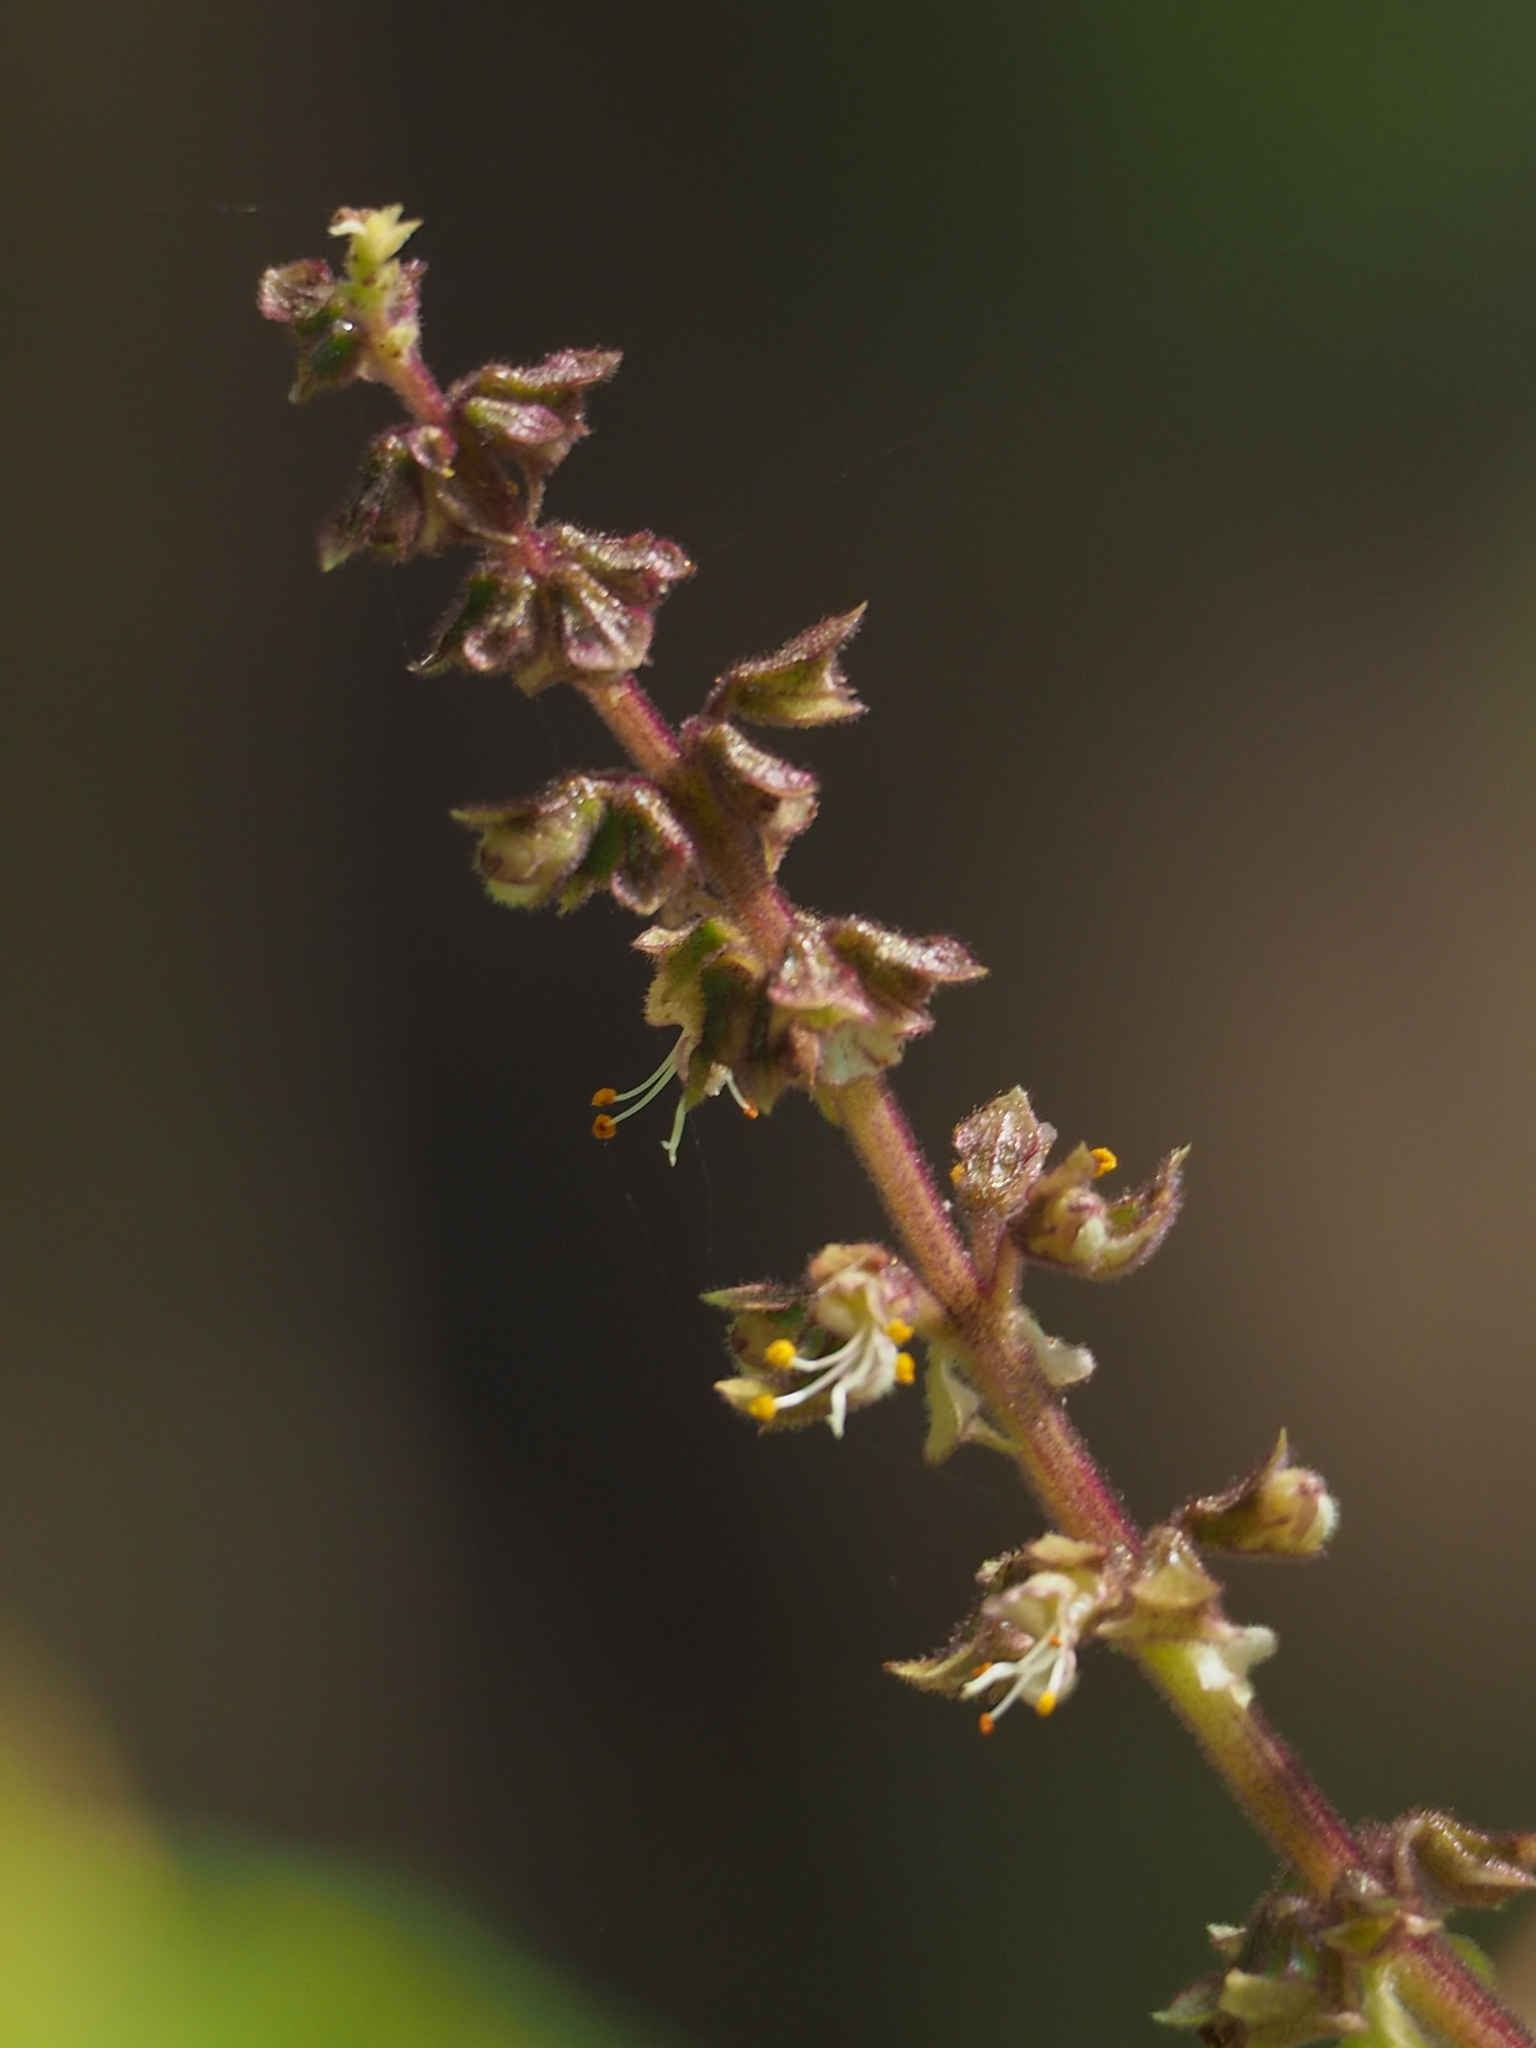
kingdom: Plantae
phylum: Tracheophyta
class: Magnoliopsida
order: Lamiales
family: Lamiaceae
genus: Ocimum
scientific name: Ocimum gratissimum
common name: African basil
